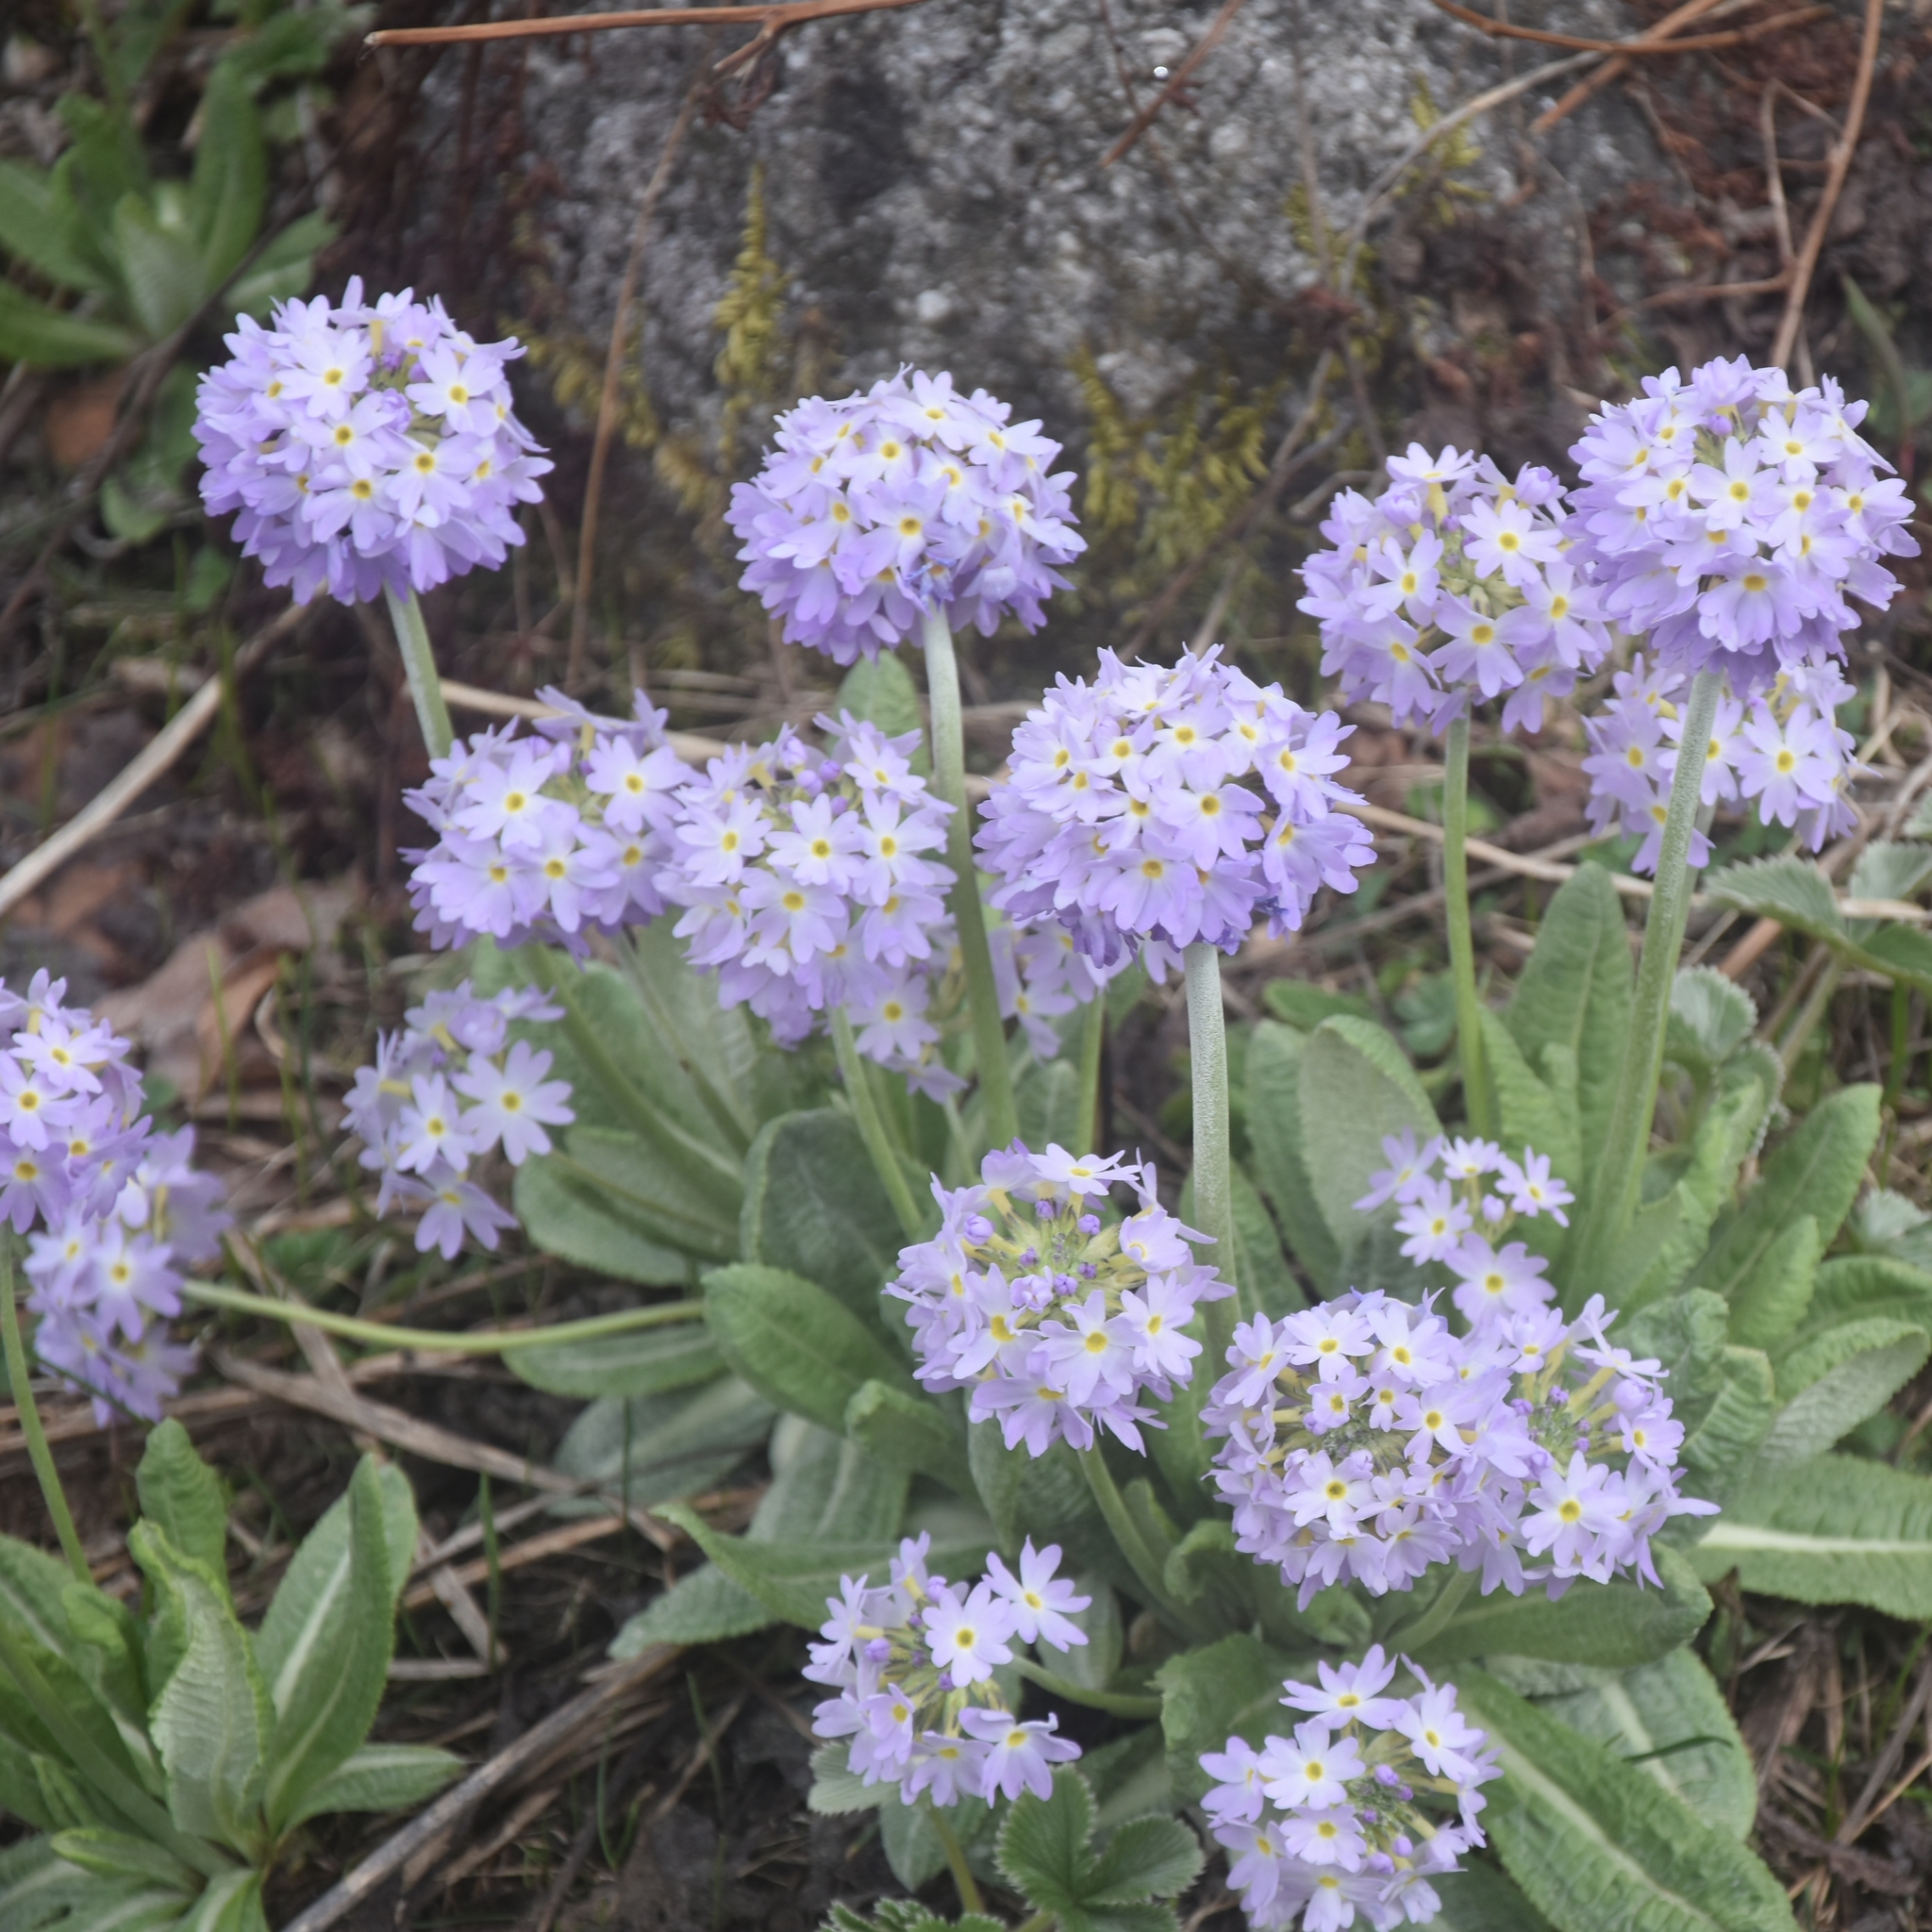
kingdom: Plantae
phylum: Tracheophyta
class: Magnoliopsida
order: Ericales
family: Primulaceae
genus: Primula
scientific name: Primula denticulata
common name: Drumstick primula
